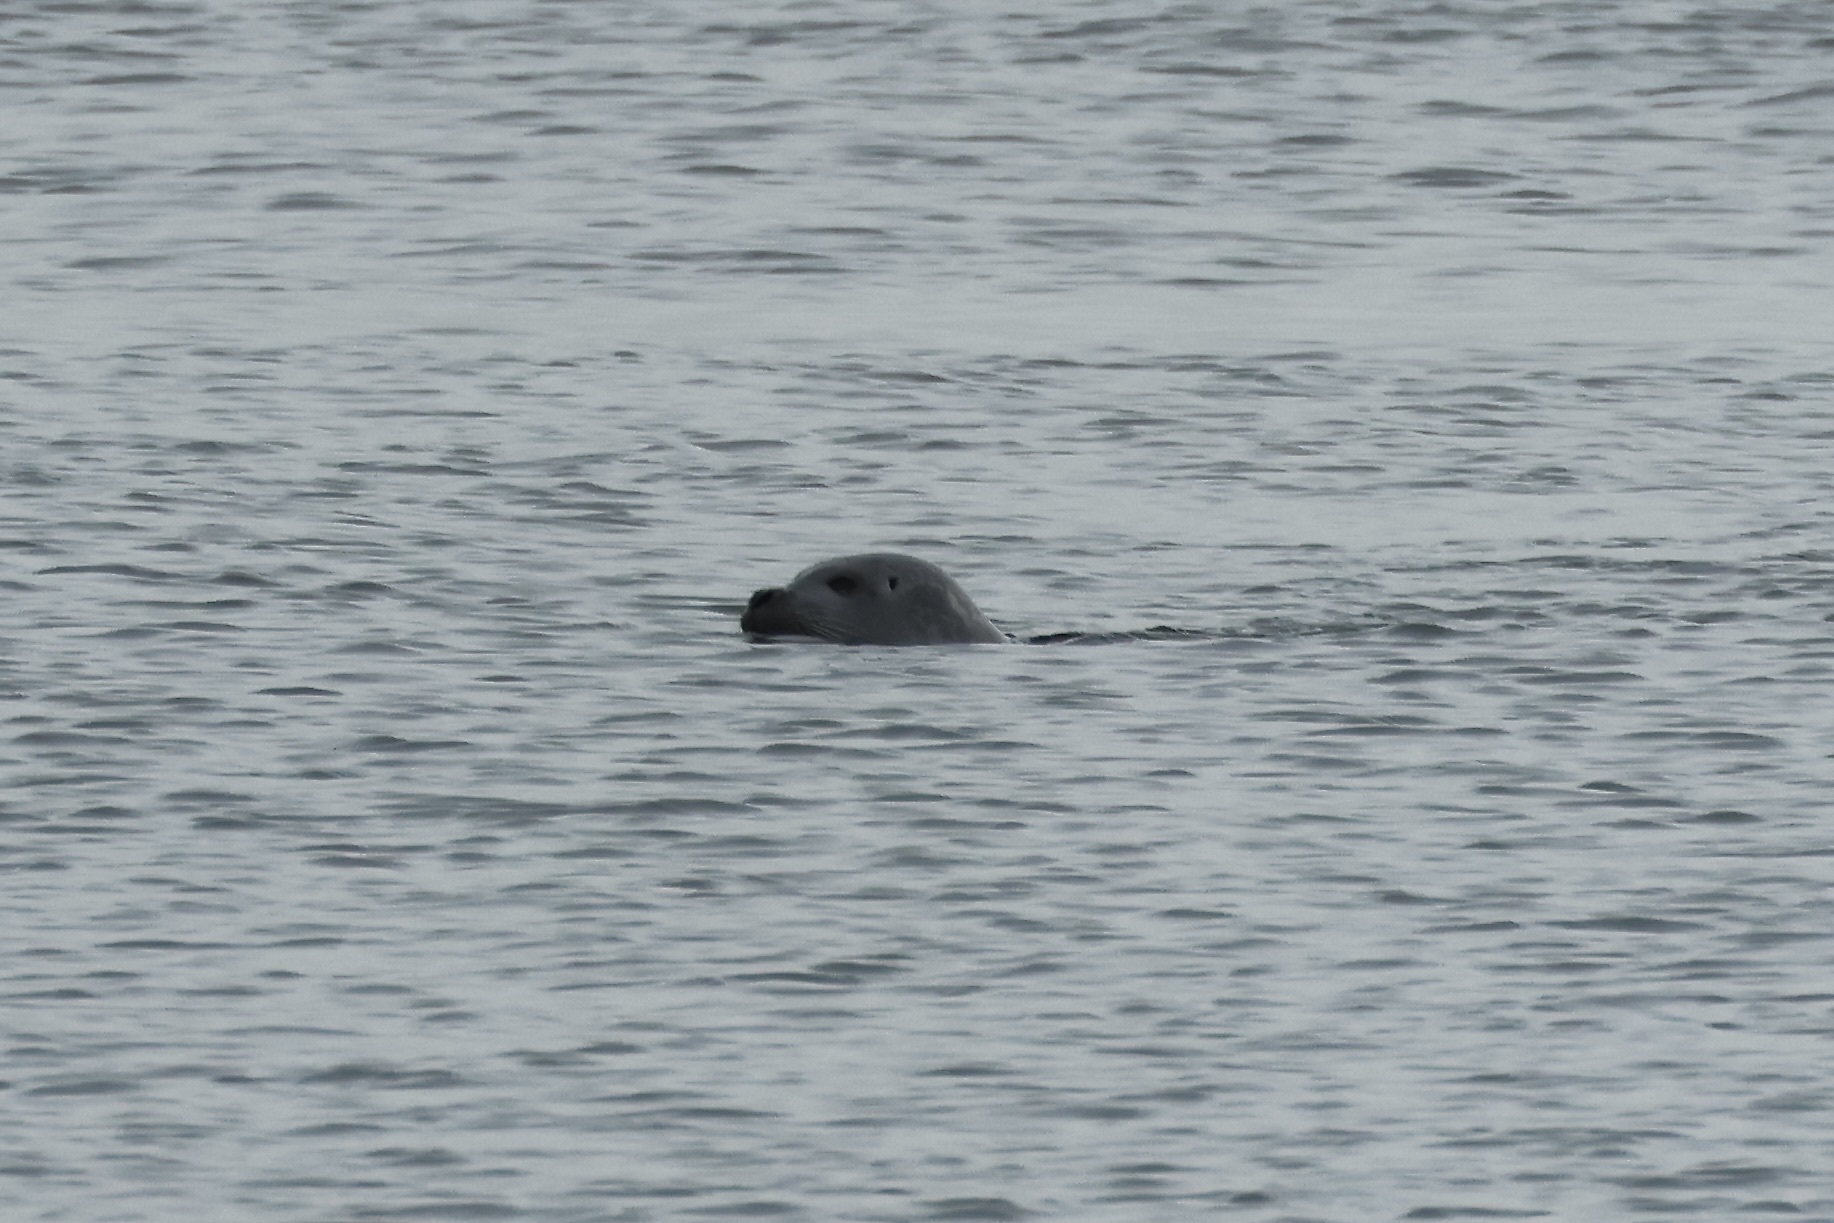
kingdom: Animalia
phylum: Chordata
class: Mammalia
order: Carnivora
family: Phocidae
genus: Phoca
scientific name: Phoca vitulina
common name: Harbor seal
